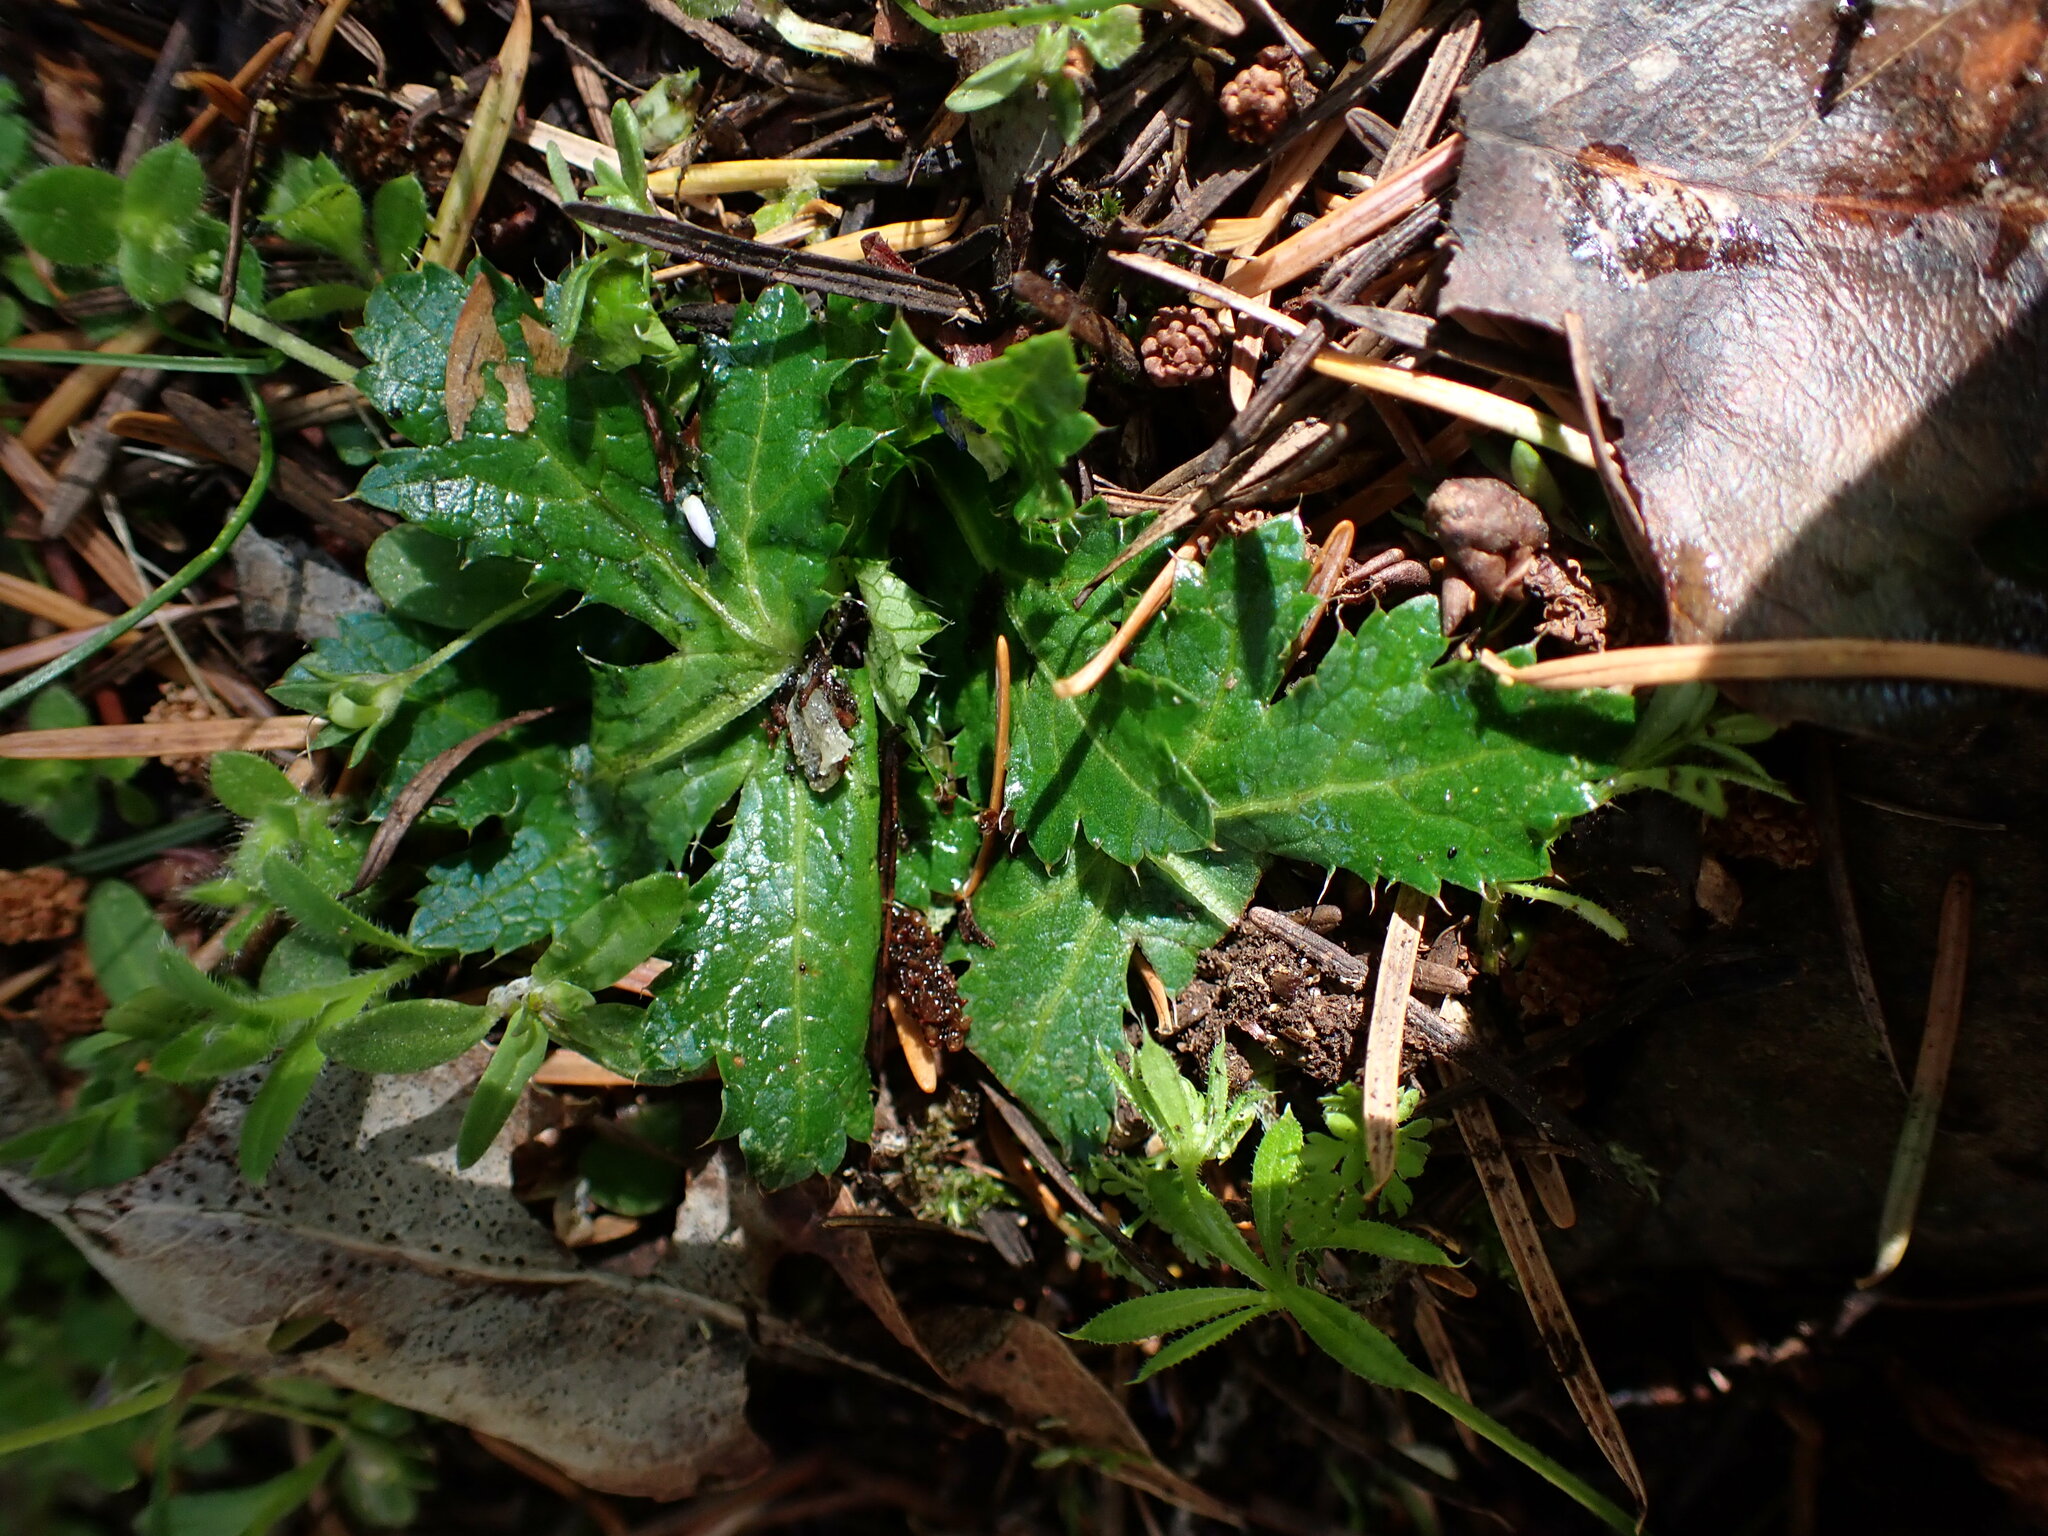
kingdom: Plantae
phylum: Tracheophyta
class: Magnoliopsida
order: Apiales
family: Apiaceae
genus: Sanicula
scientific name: Sanicula crassicaulis
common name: Western snakeroot
